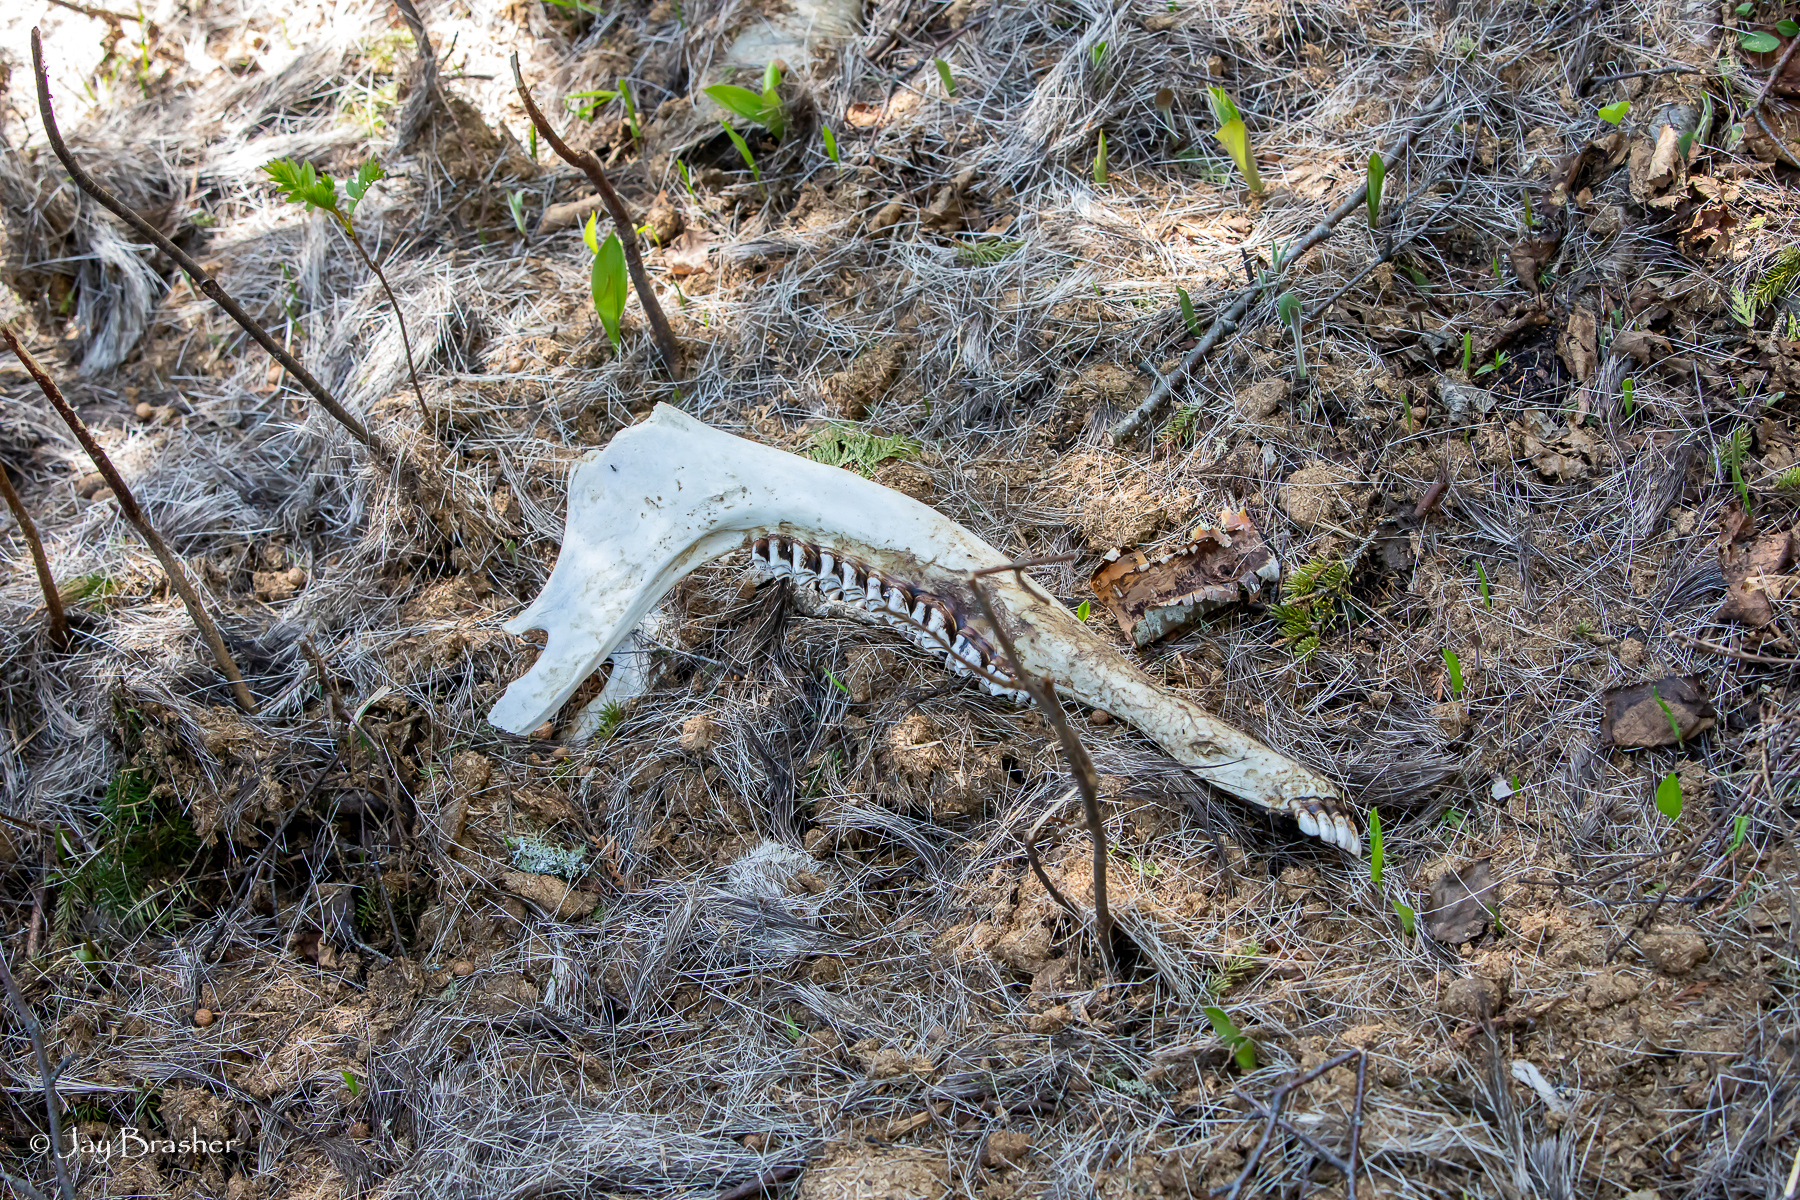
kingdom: Animalia
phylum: Chordata
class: Mammalia
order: Artiodactyla
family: Cervidae
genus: Alces
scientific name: Alces americanus
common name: Moose
